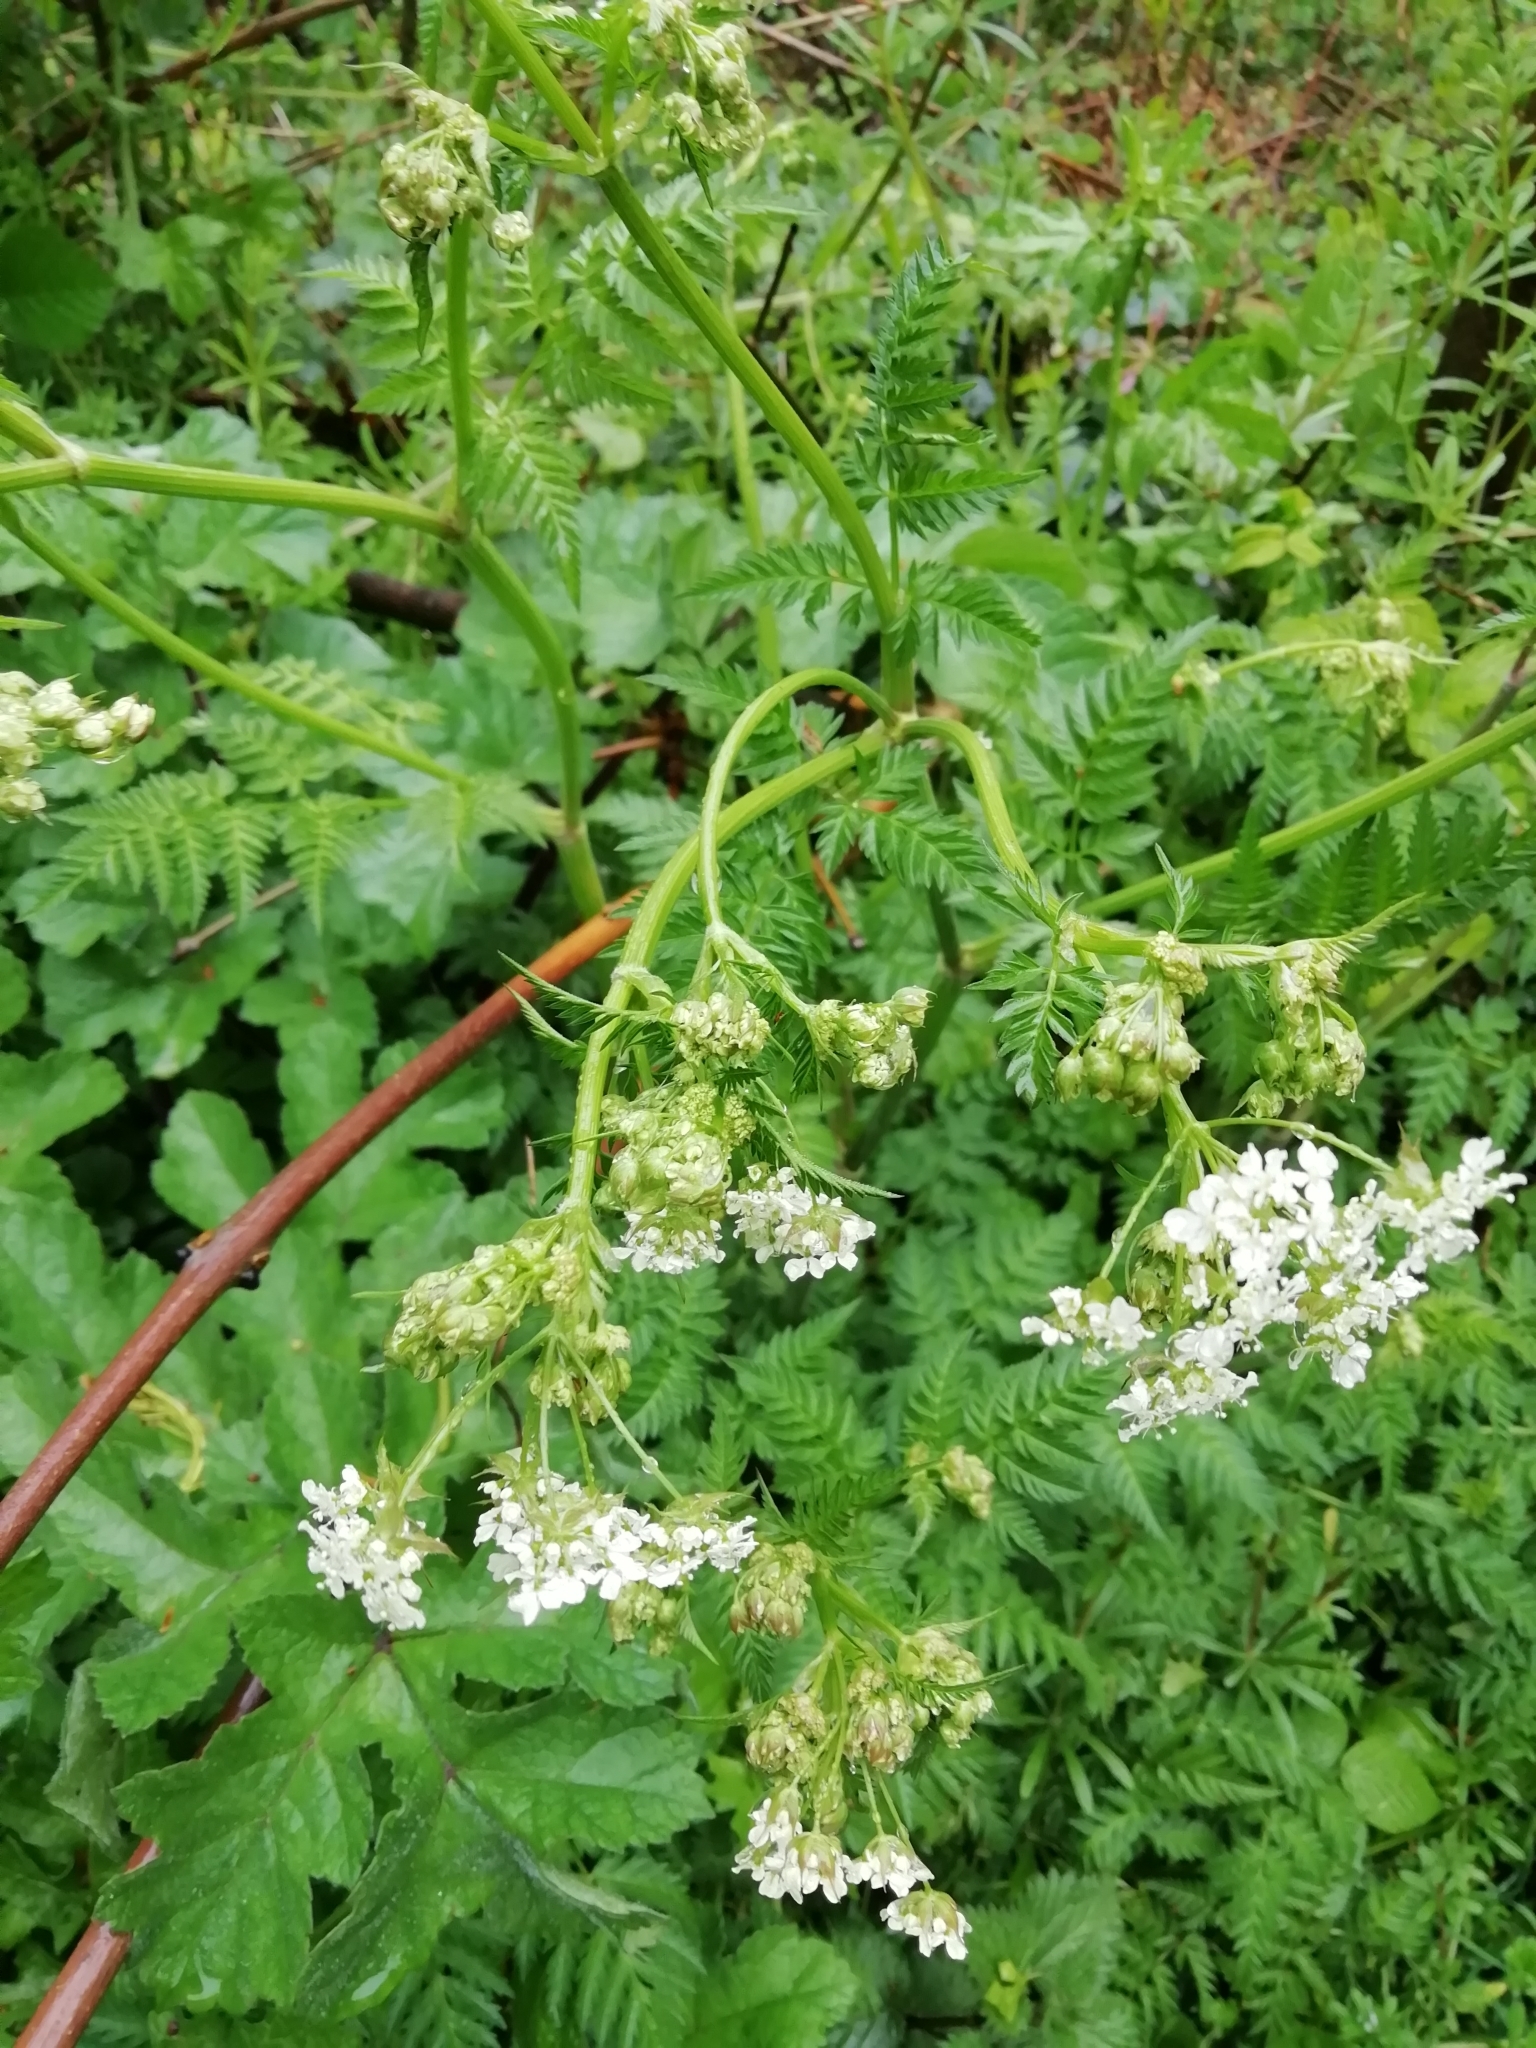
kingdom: Plantae
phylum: Tracheophyta
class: Magnoliopsida
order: Apiales
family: Apiaceae
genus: Anthriscus
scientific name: Anthriscus sylvestris
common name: Cow parsley
